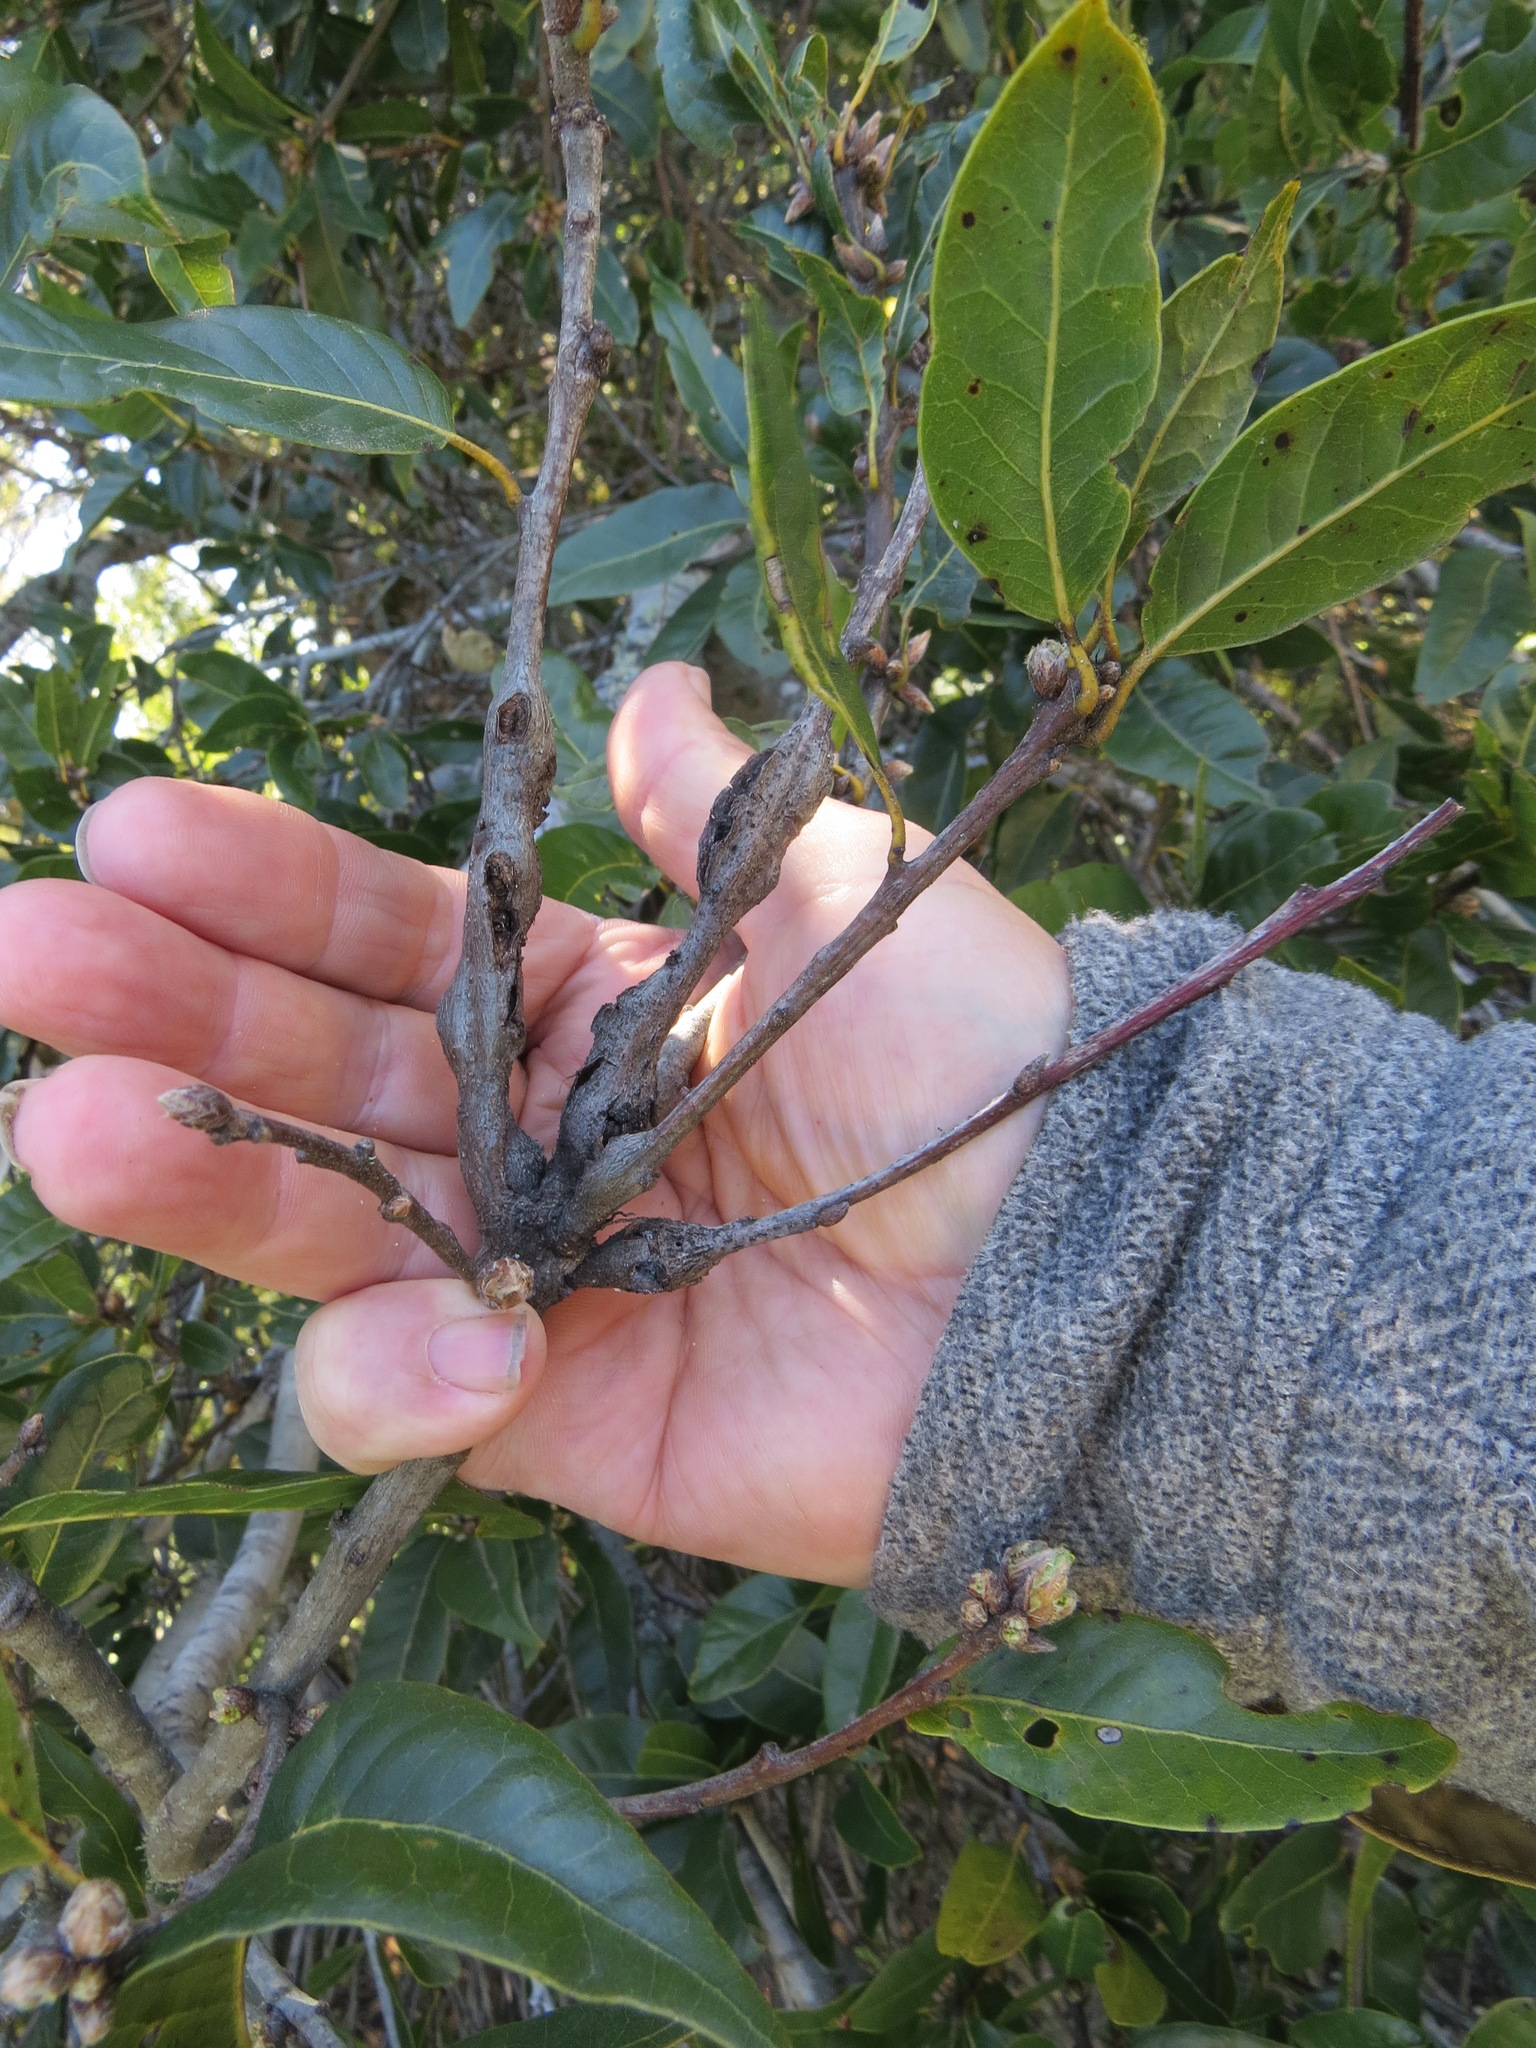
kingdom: Animalia
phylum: Arthropoda
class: Insecta
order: Hymenoptera
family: Cynipidae
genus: Callirhytis
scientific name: Callirhytis
